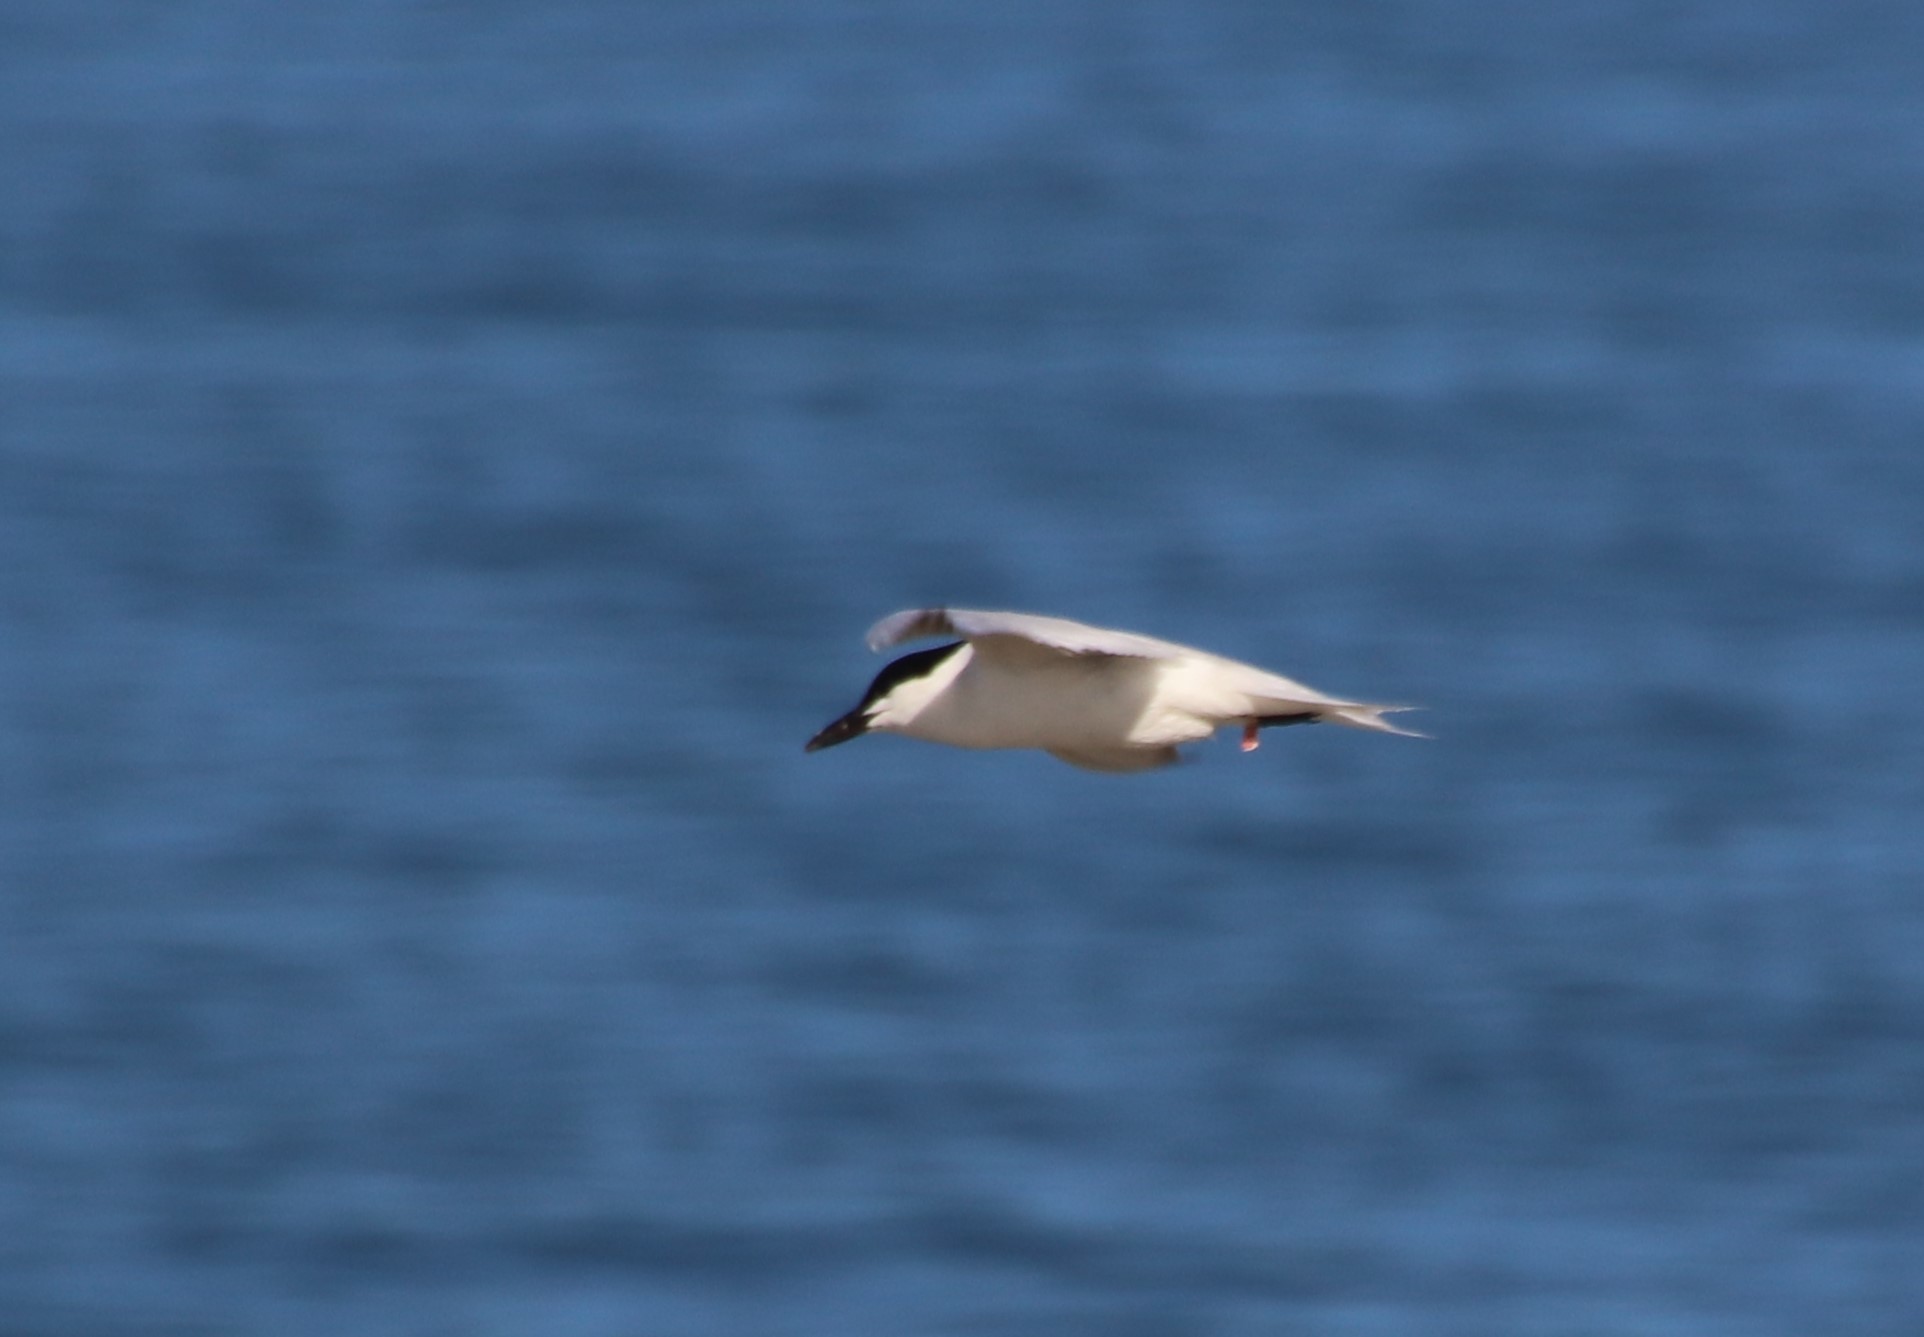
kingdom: Animalia
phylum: Chordata
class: Aves
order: Charadriiformes
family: Laridae
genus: Gelochelidon
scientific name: Gelochelidon nilotica
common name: Gull-billed tern
